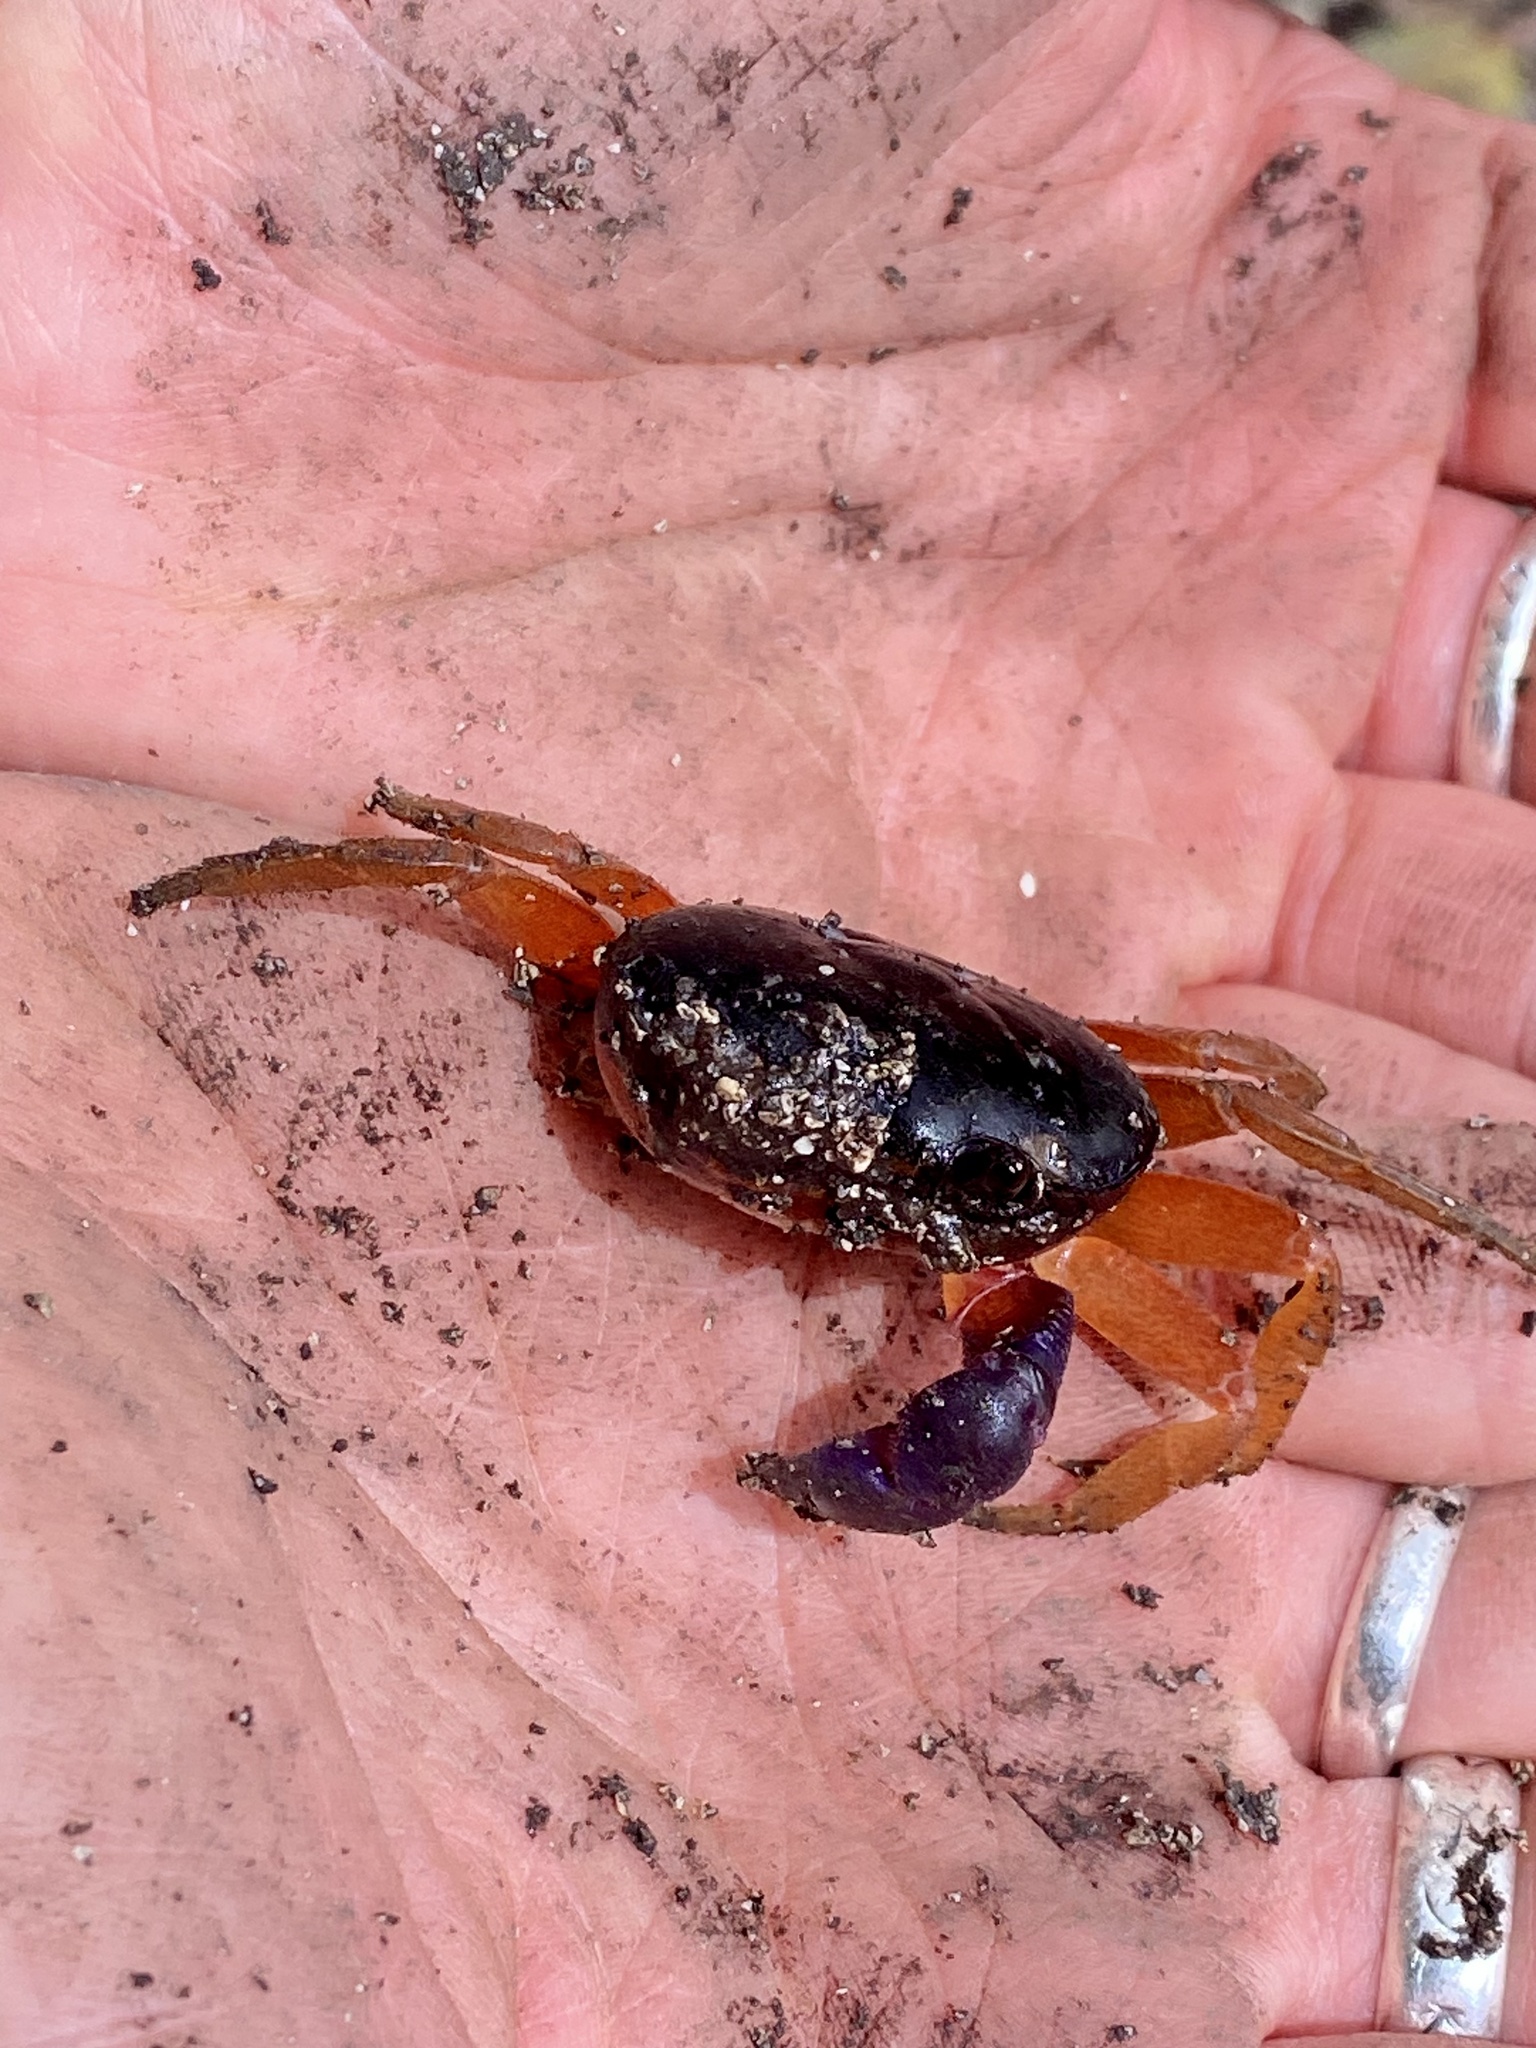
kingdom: Animalia
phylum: Arthropoda
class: Malacostraca
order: Decapoda
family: Gecarcinidae
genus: Gecarcinus
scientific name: Gecarcinus quadratus
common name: Halloween crab
